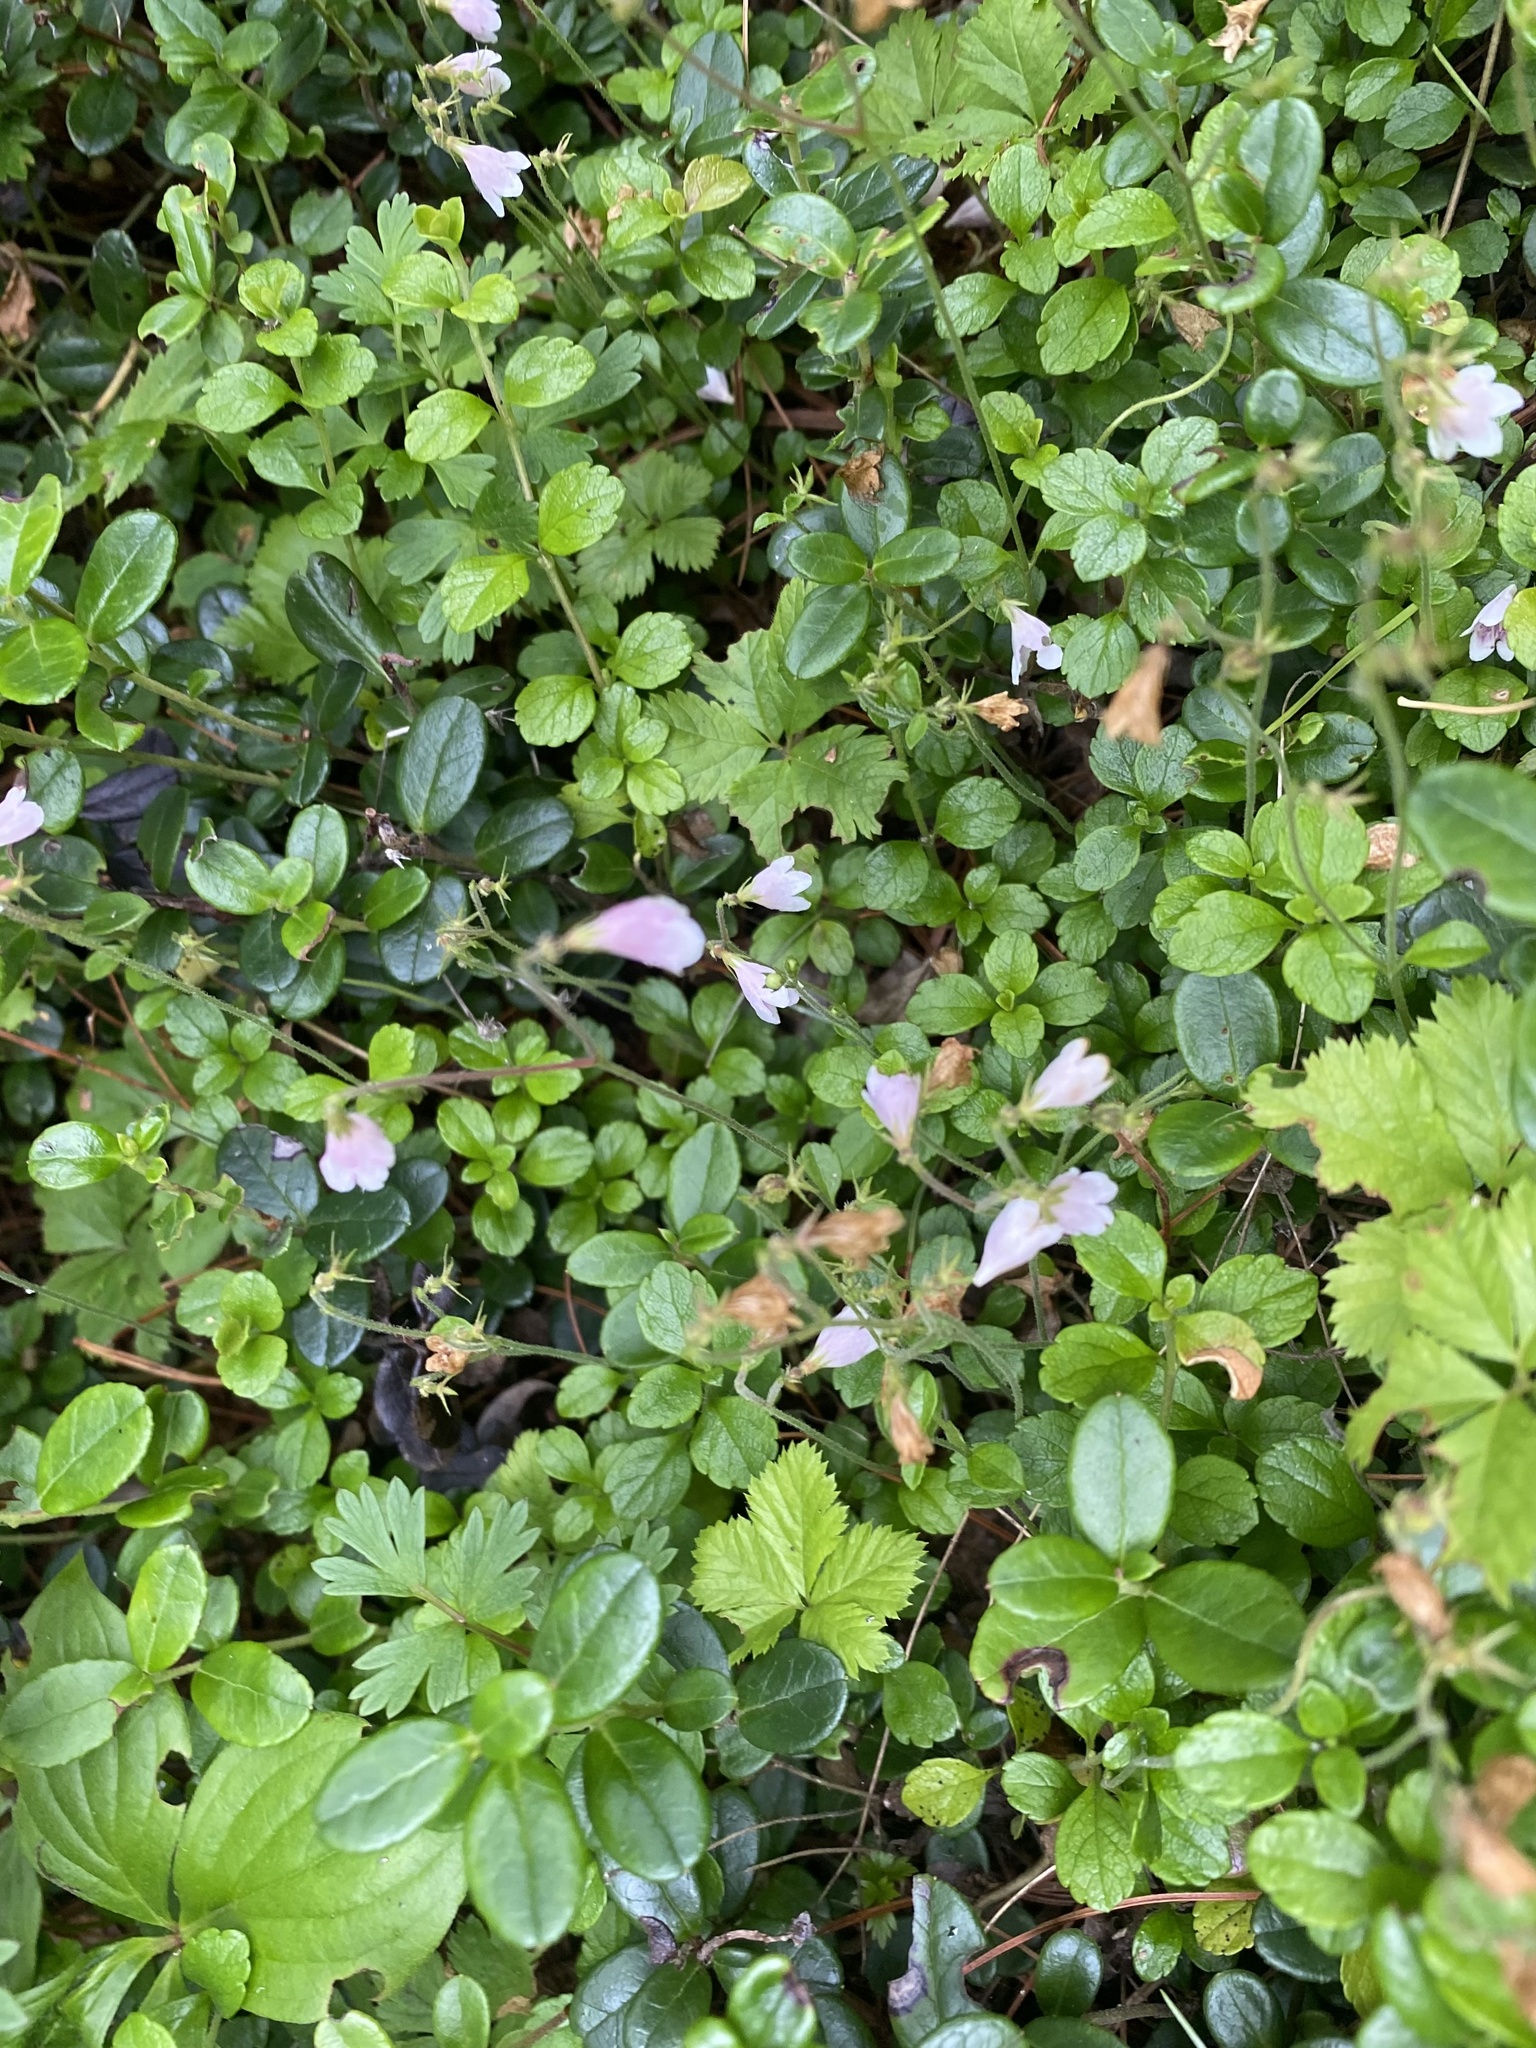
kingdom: Plantae
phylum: Tracheophyta
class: Magnoliopsida
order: Dipsacales
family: Caprifoliaceae
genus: Linnaea
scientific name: Linnaea borealis
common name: Twinflower
